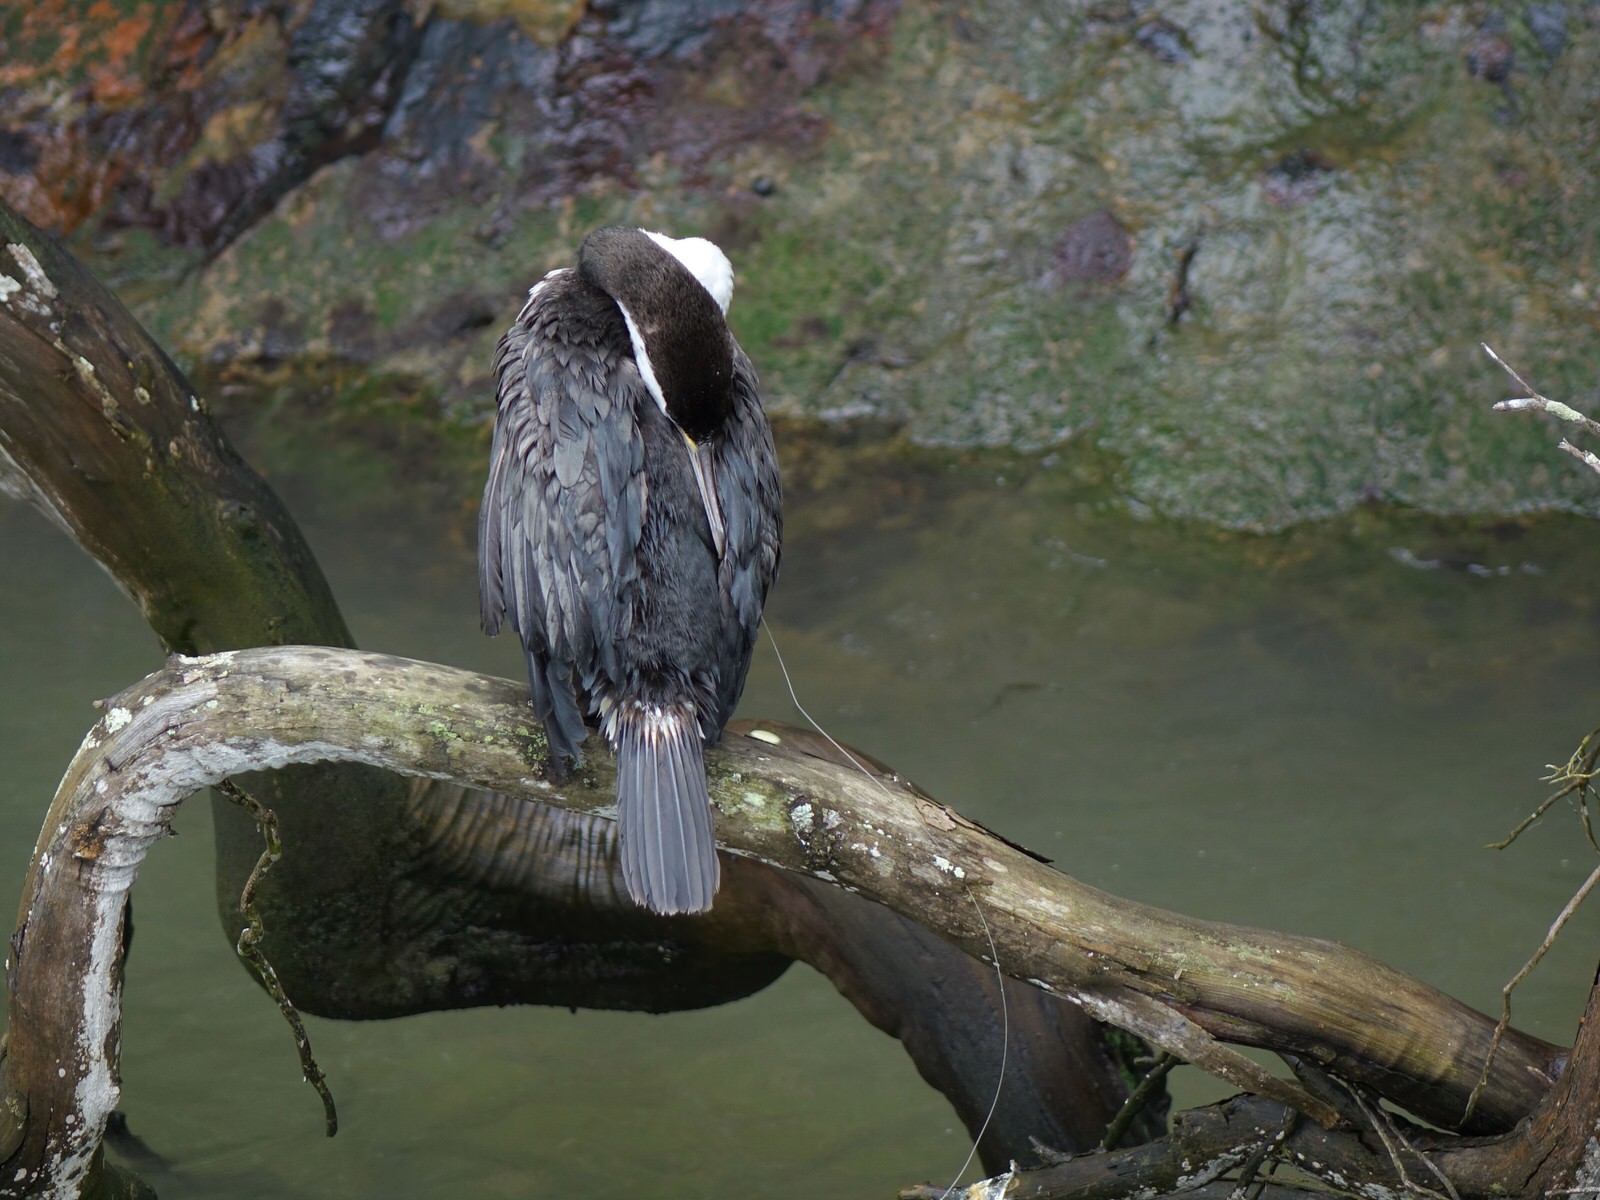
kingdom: Animalia
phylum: Chordata
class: Aves
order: Suliformes
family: Phalacrocoracidae
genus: Phalacrocorax
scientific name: Phalacrocorax varius
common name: Pied cormorant
